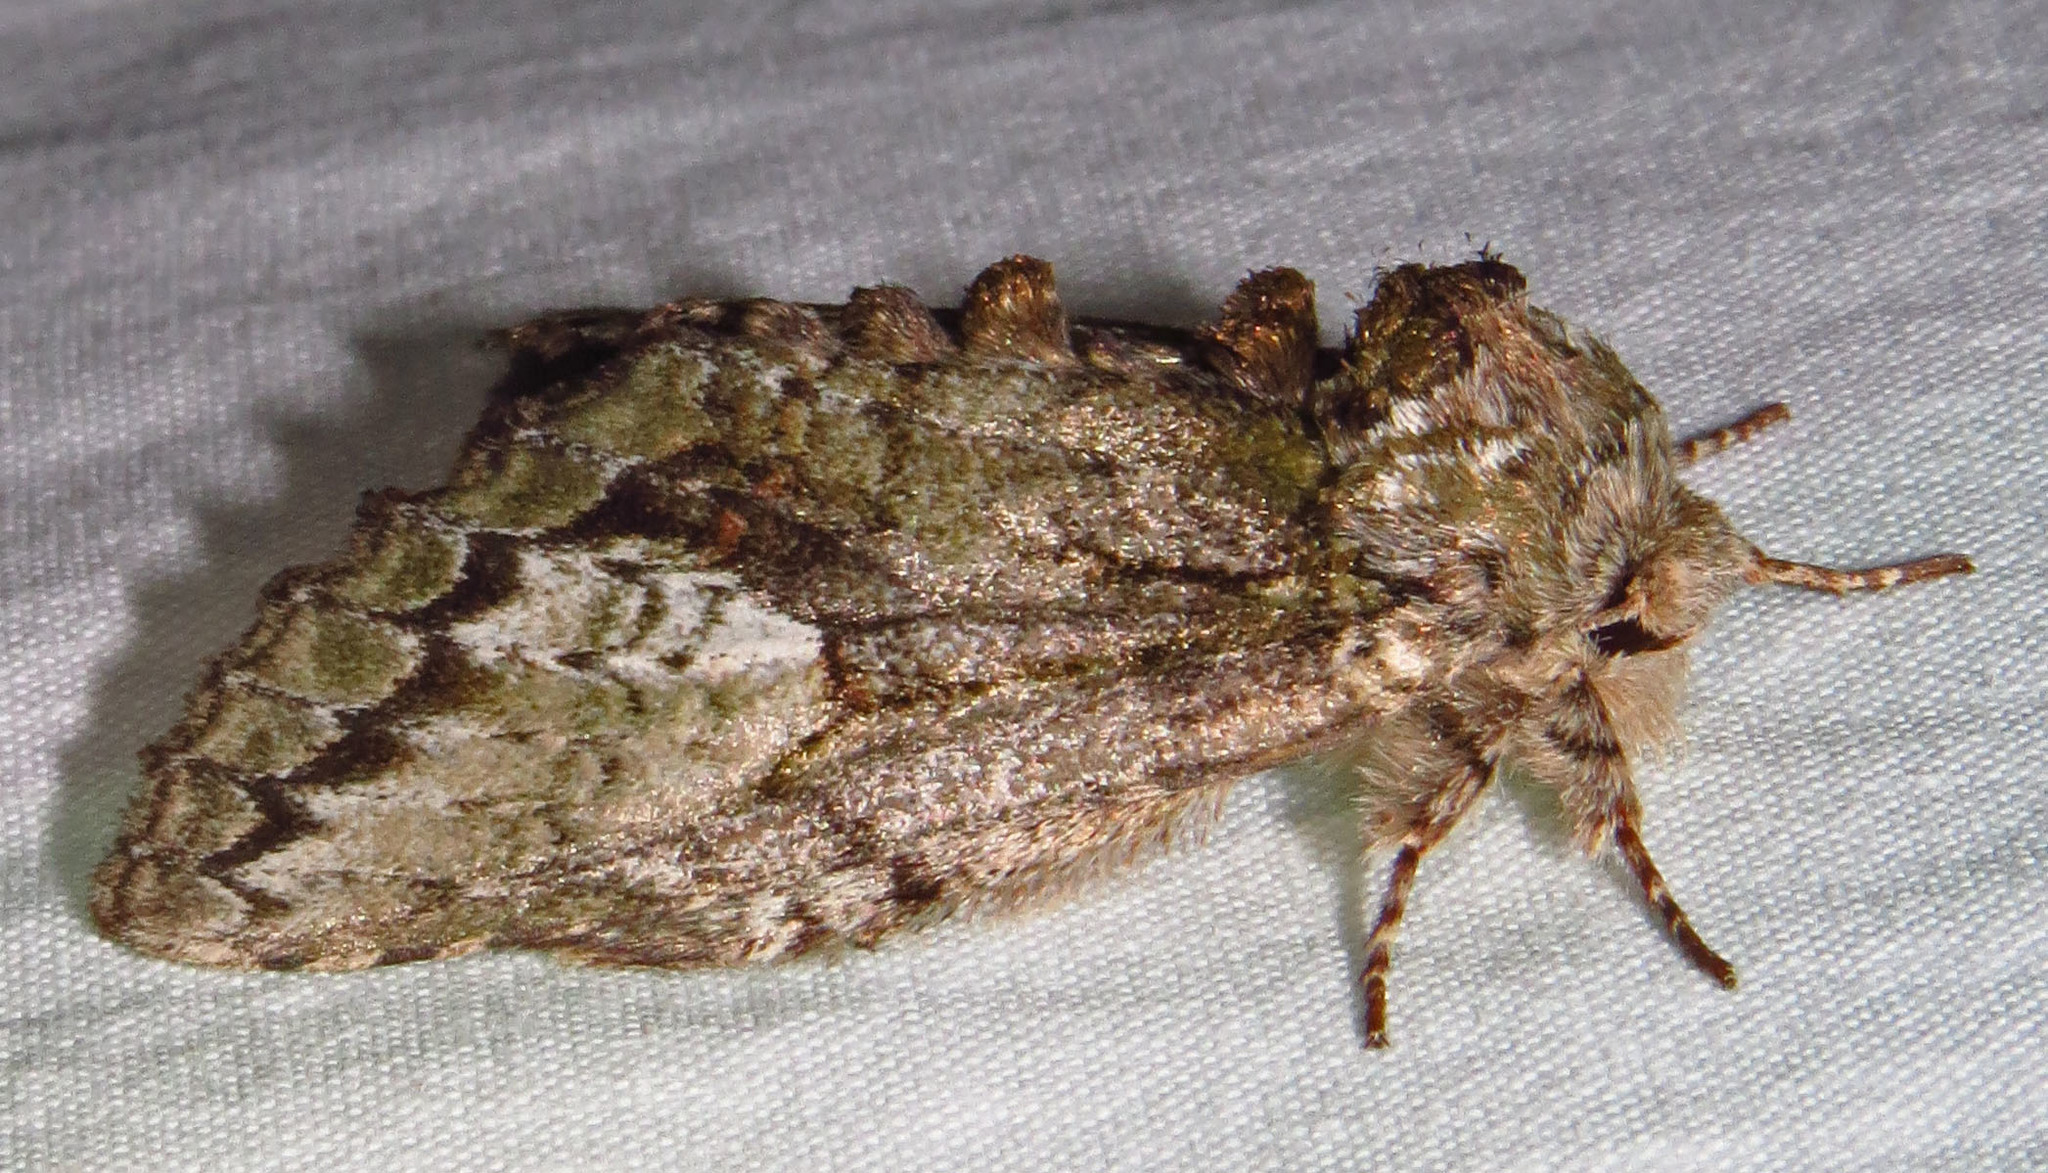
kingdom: Animalia
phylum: Arthropoda
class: Insecta
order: Lepidoptera
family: Notodontidae
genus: Heterocampa
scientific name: Heterocampa
